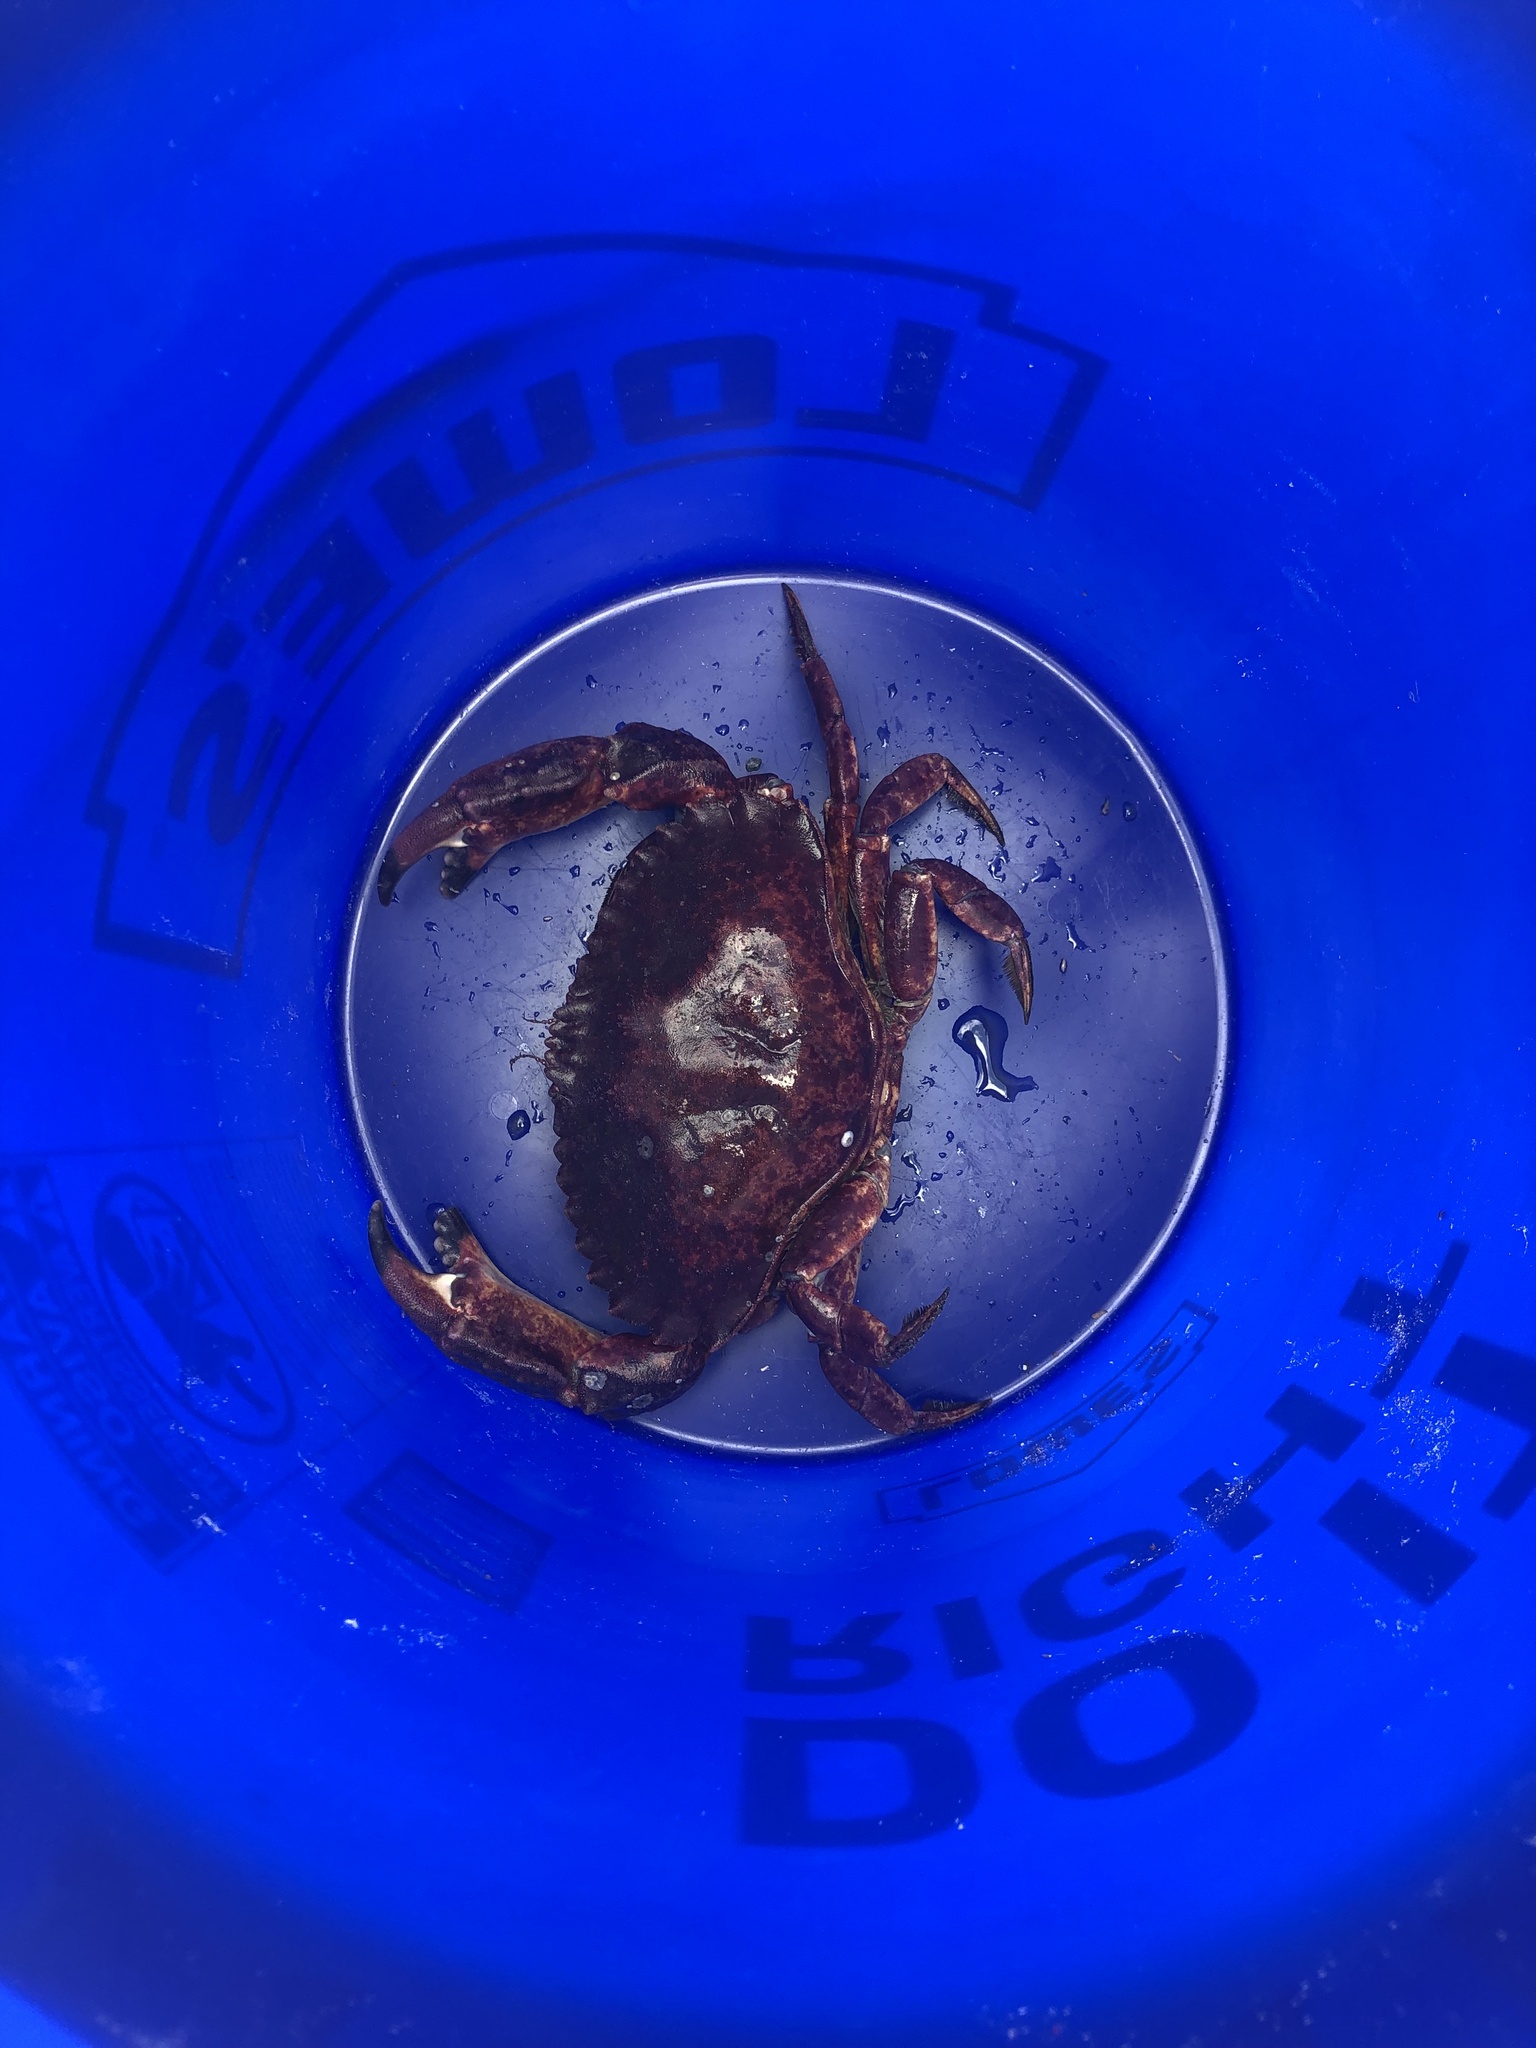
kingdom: Animalia
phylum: Arthropoda
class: Malacostraca
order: Decapoda
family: Cancridae
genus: Cancer
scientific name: Cancer productus
